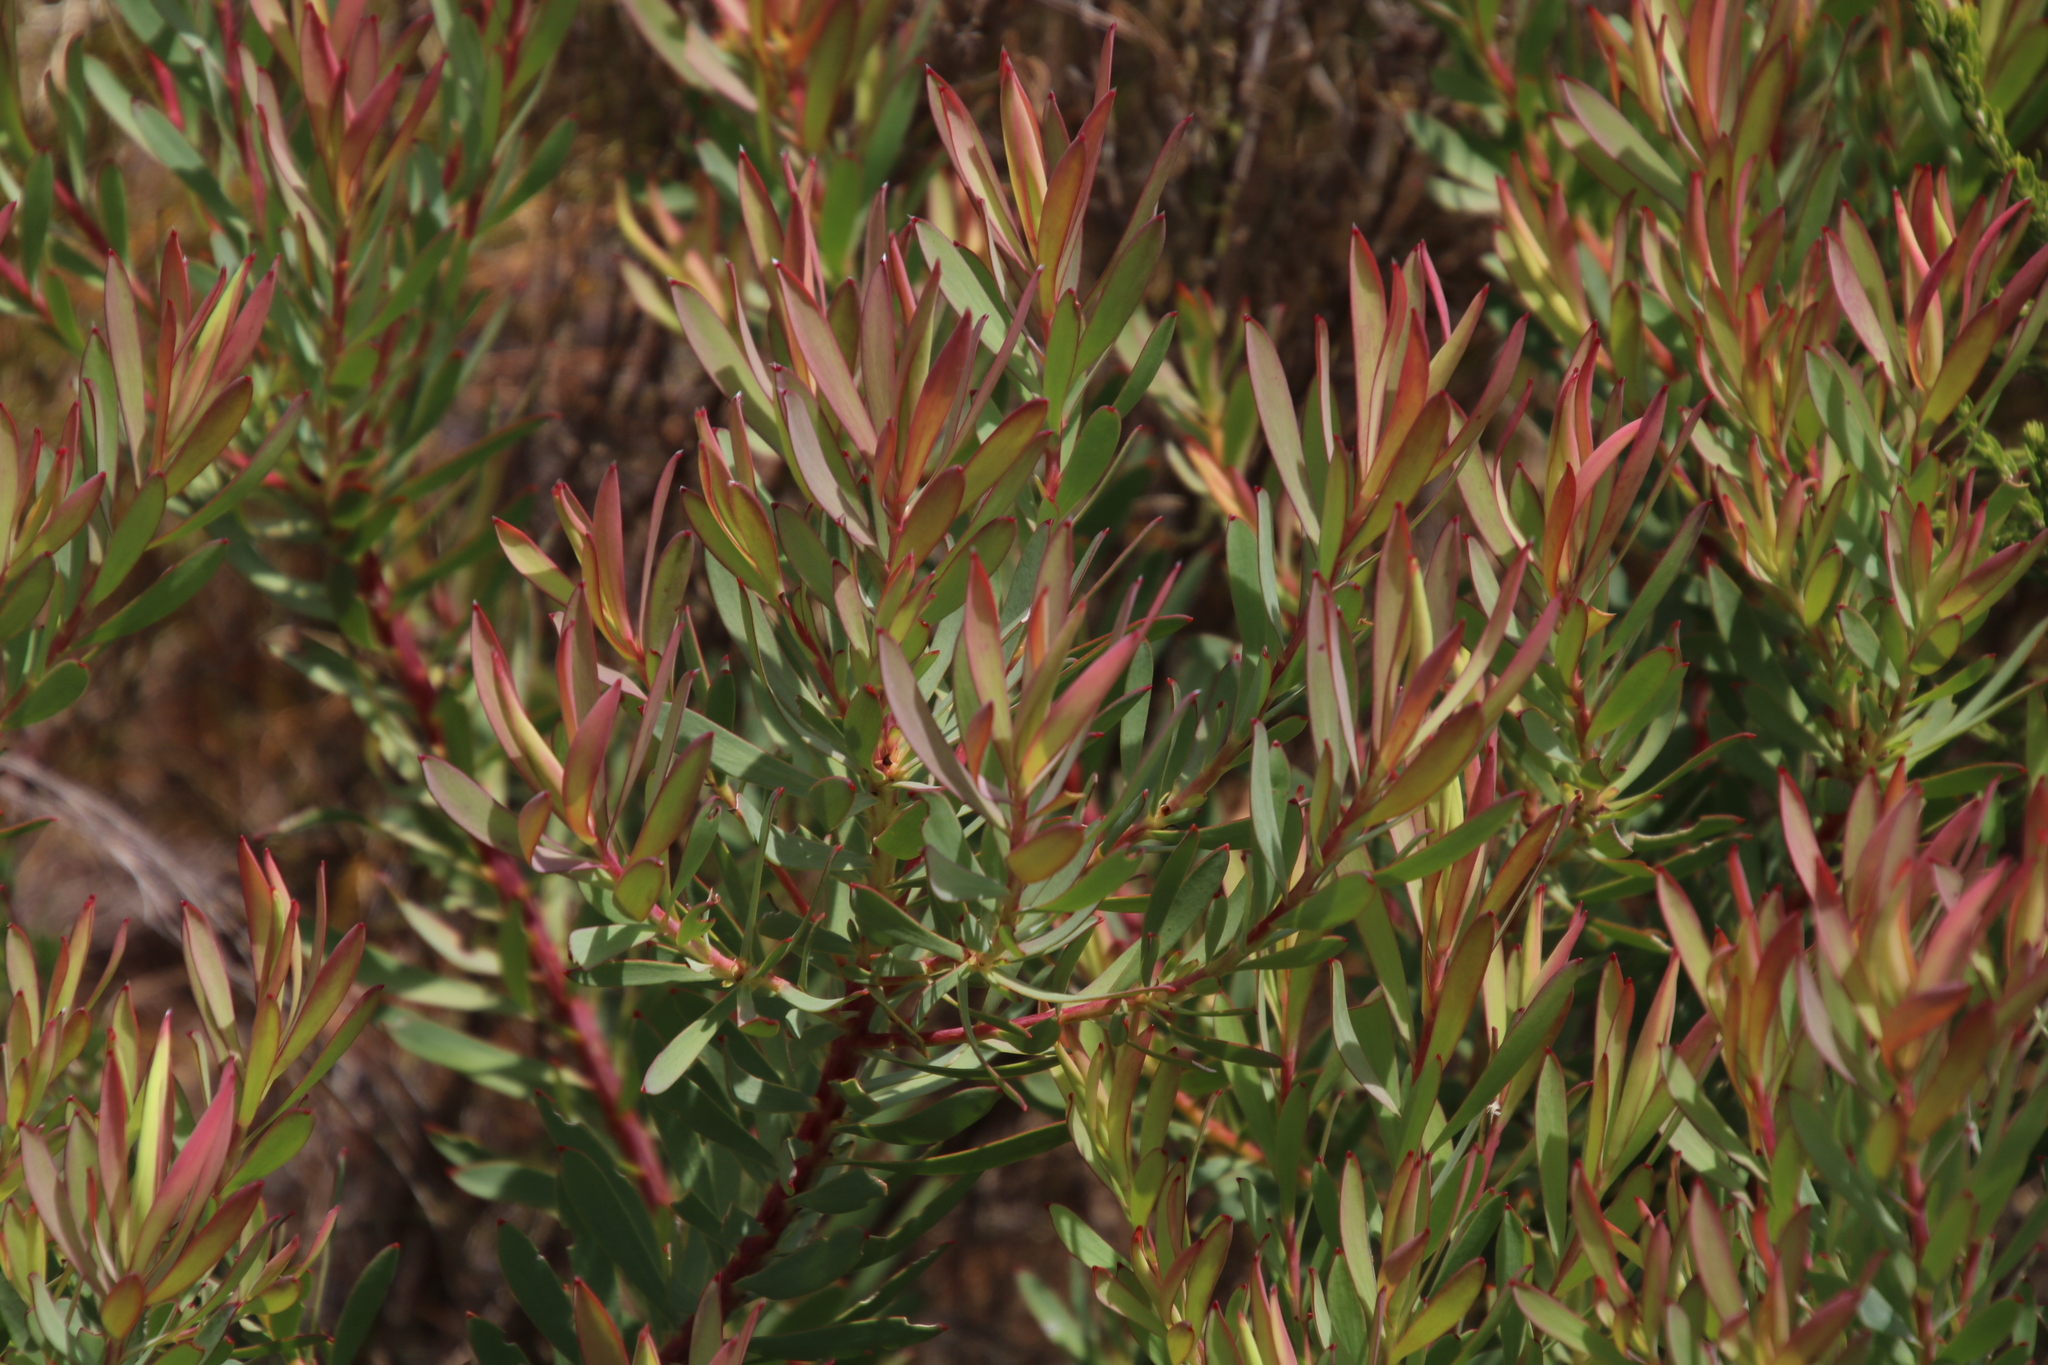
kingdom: Plantae
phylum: Tracheophyta
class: Magnoliopsida
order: Proteales
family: Proteaceae
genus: Leucadendron
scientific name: Leucadendron salignum
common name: Common sunshine conebush
